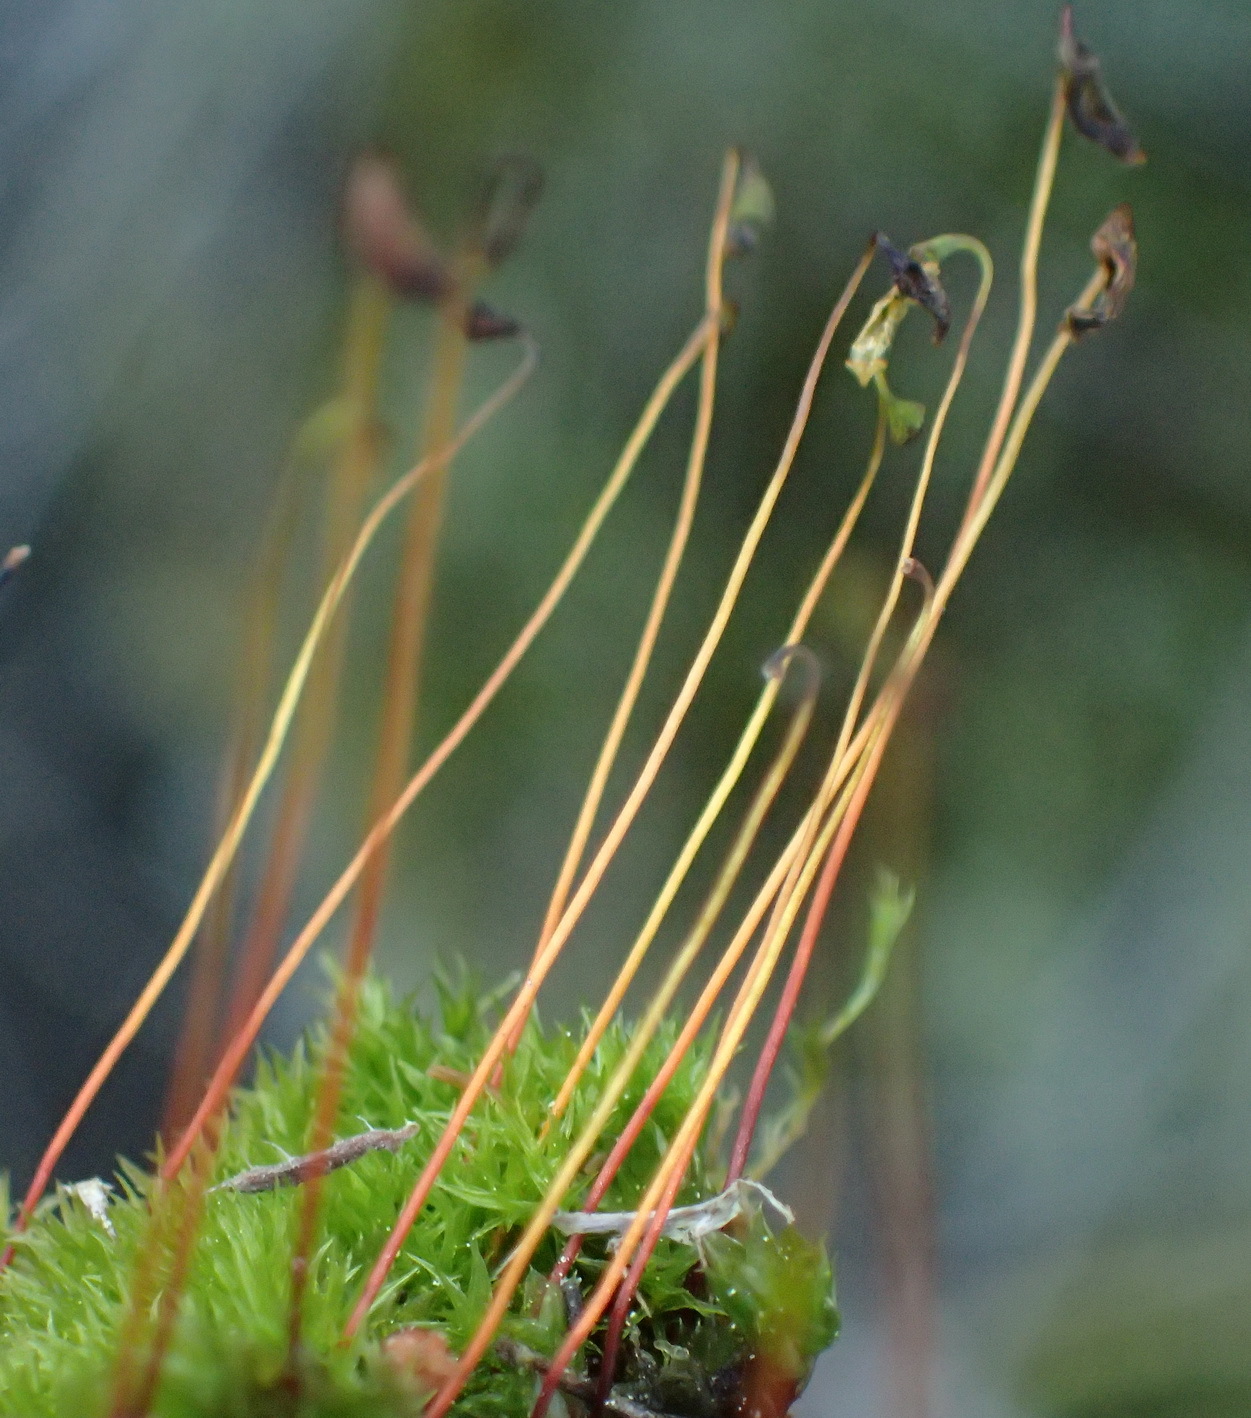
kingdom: Plantae
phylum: Bryophyta
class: Bryopsida
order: Dicranales
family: Ditrichaceae
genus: Ceratodon
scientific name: Ceratodon purpureus
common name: Redshank
